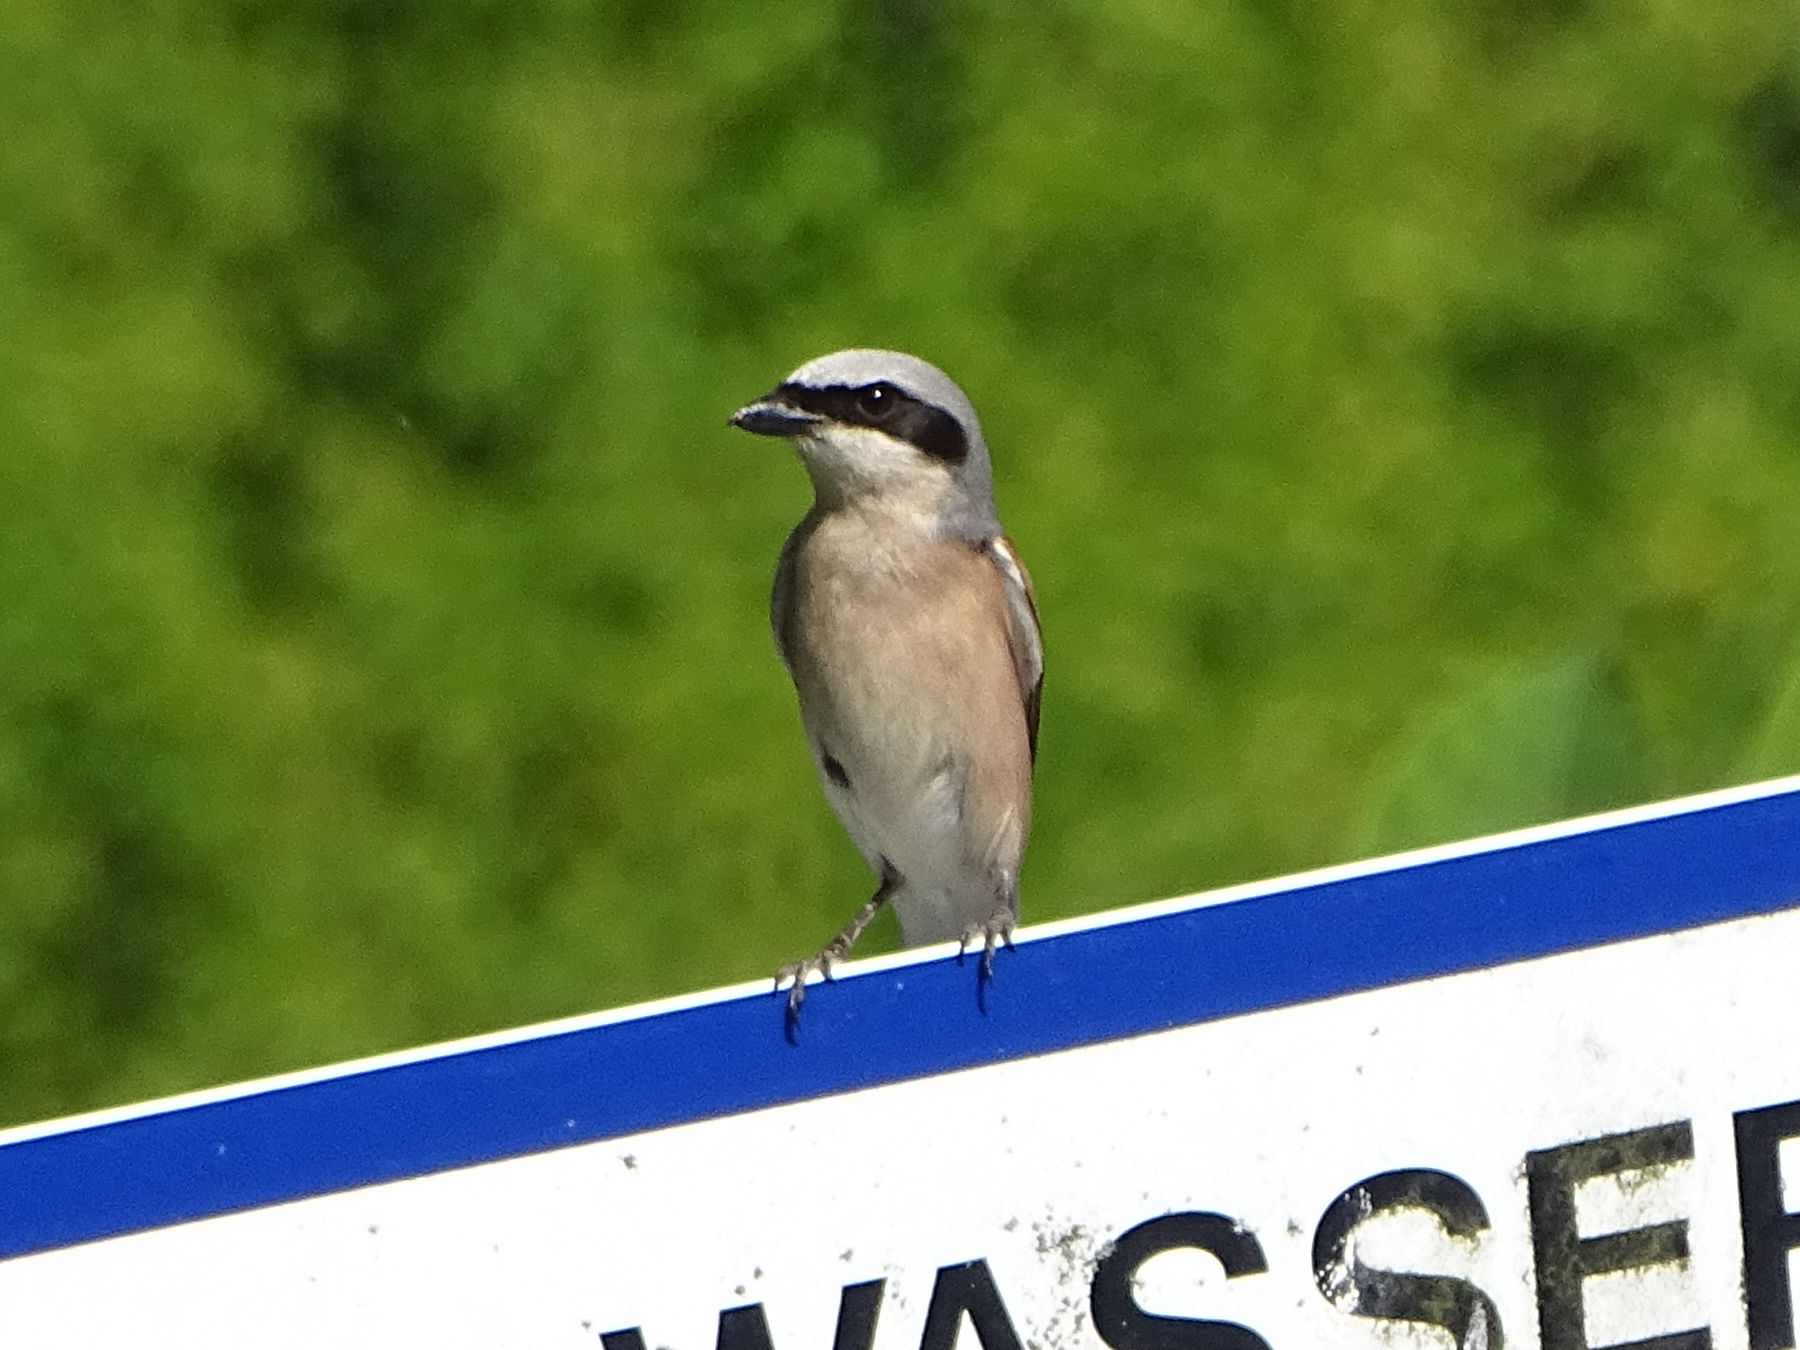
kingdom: Animalia
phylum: Chordata
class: Aves
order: Passeriformes
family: Laniidae
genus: Lanius
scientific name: Lanius collurio
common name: Red-backed shrike
